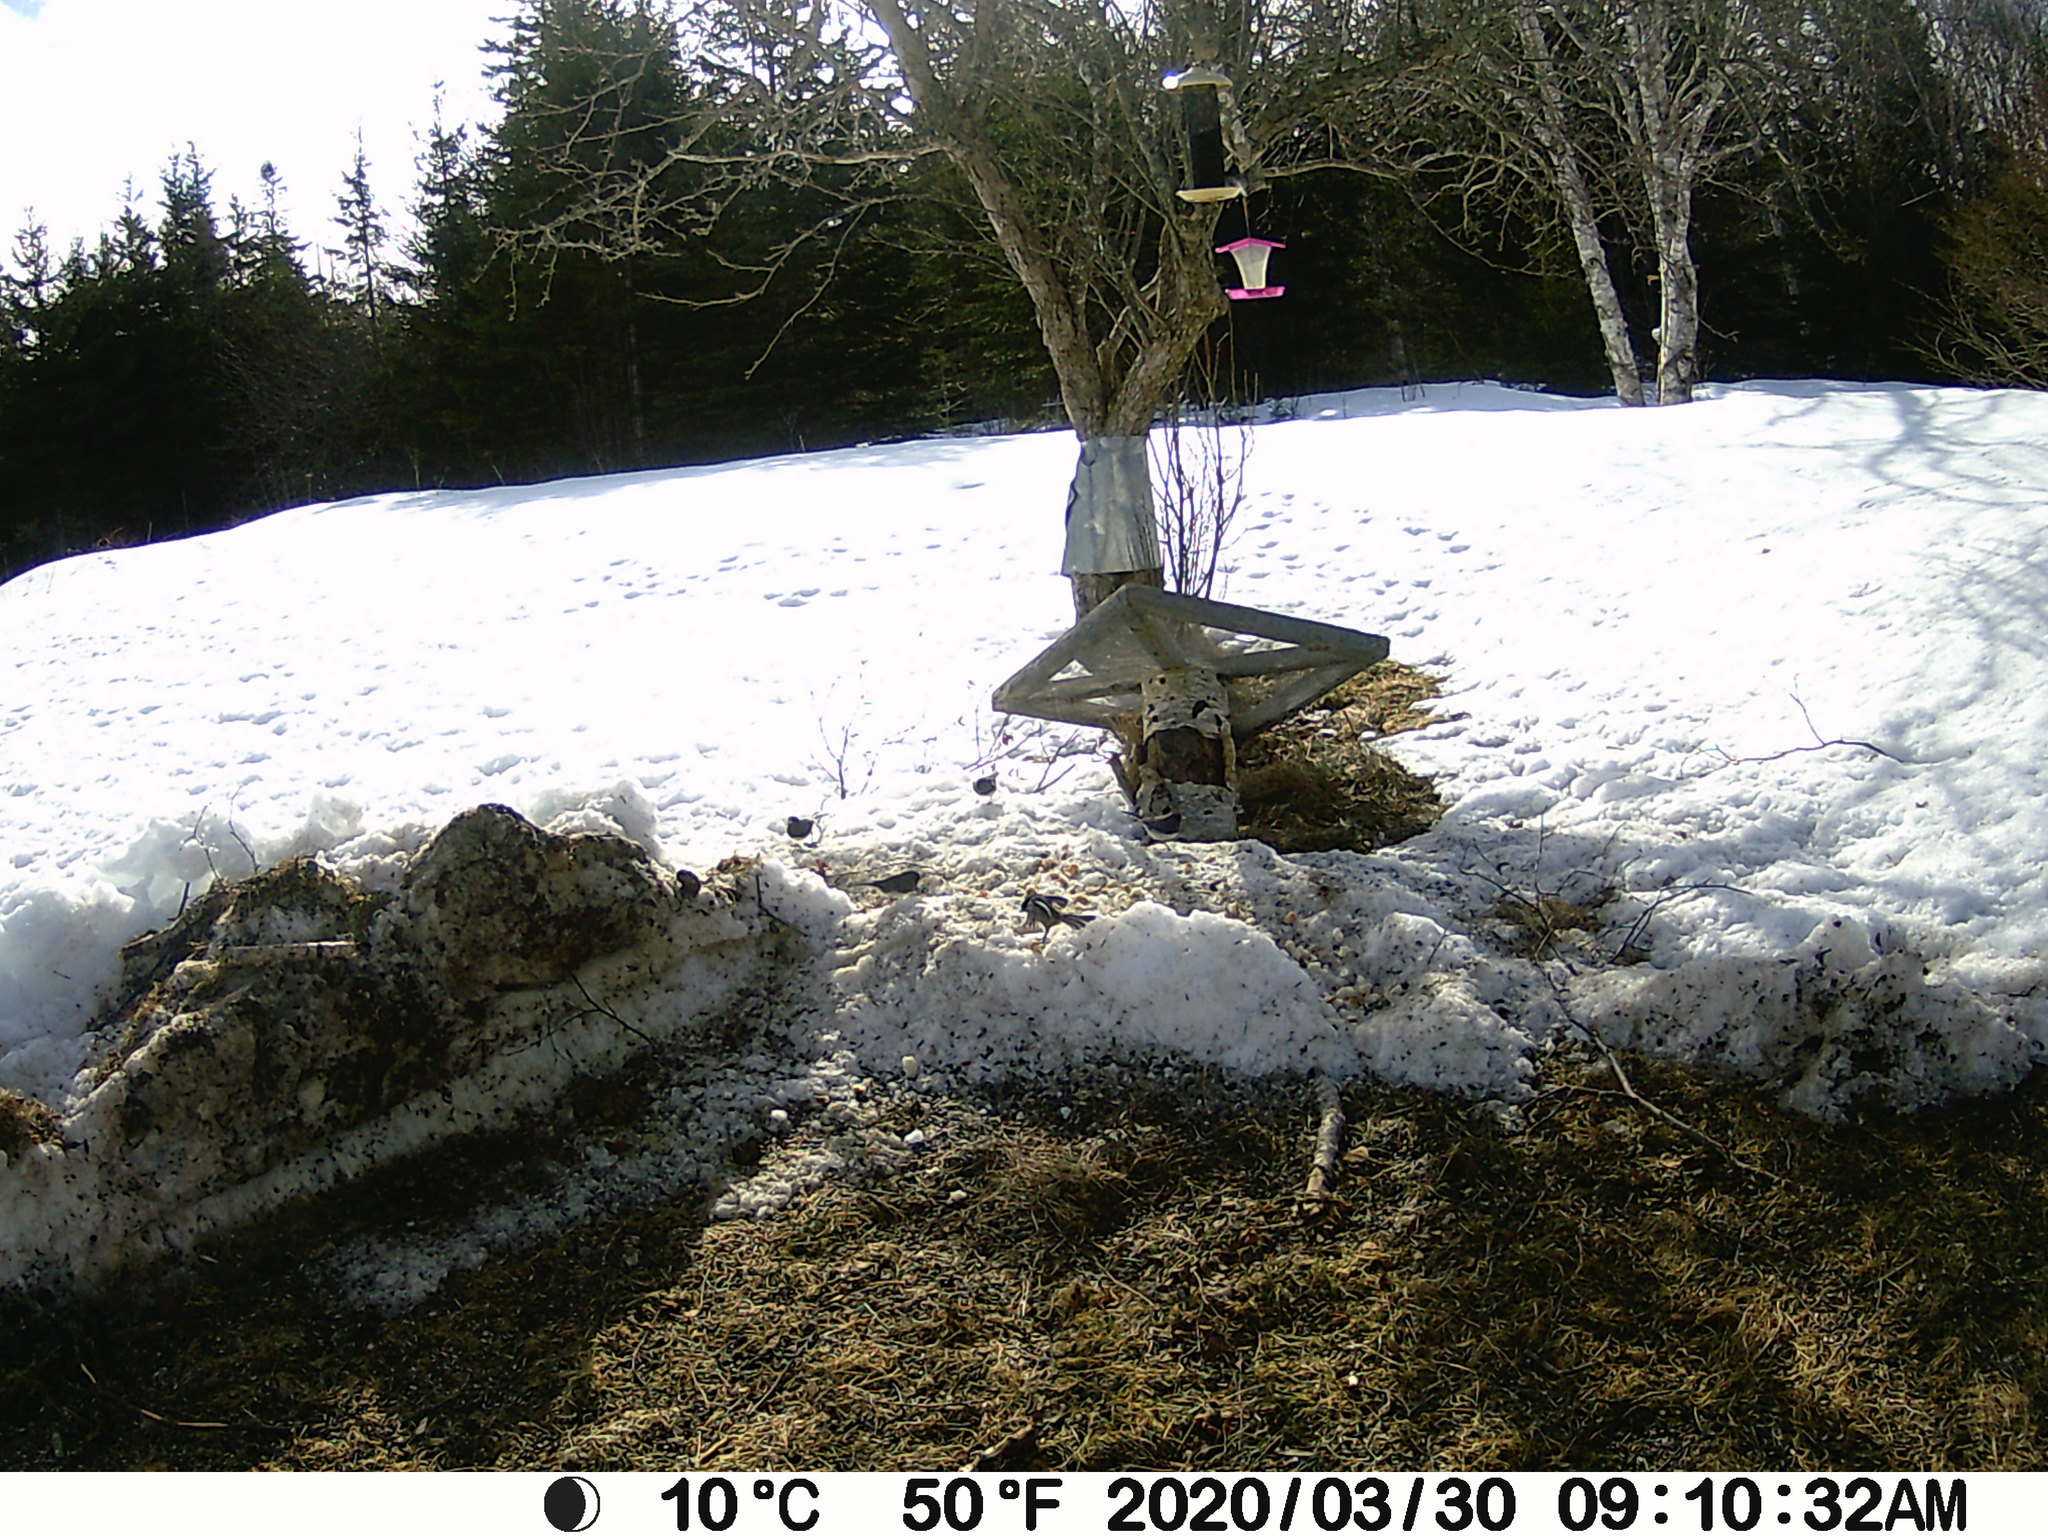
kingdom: Animalia
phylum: Chordata
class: Aves
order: Passeriformes
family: Paridae
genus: Poecile
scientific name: Poecile atricapillus
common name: Black-capped chickadee
